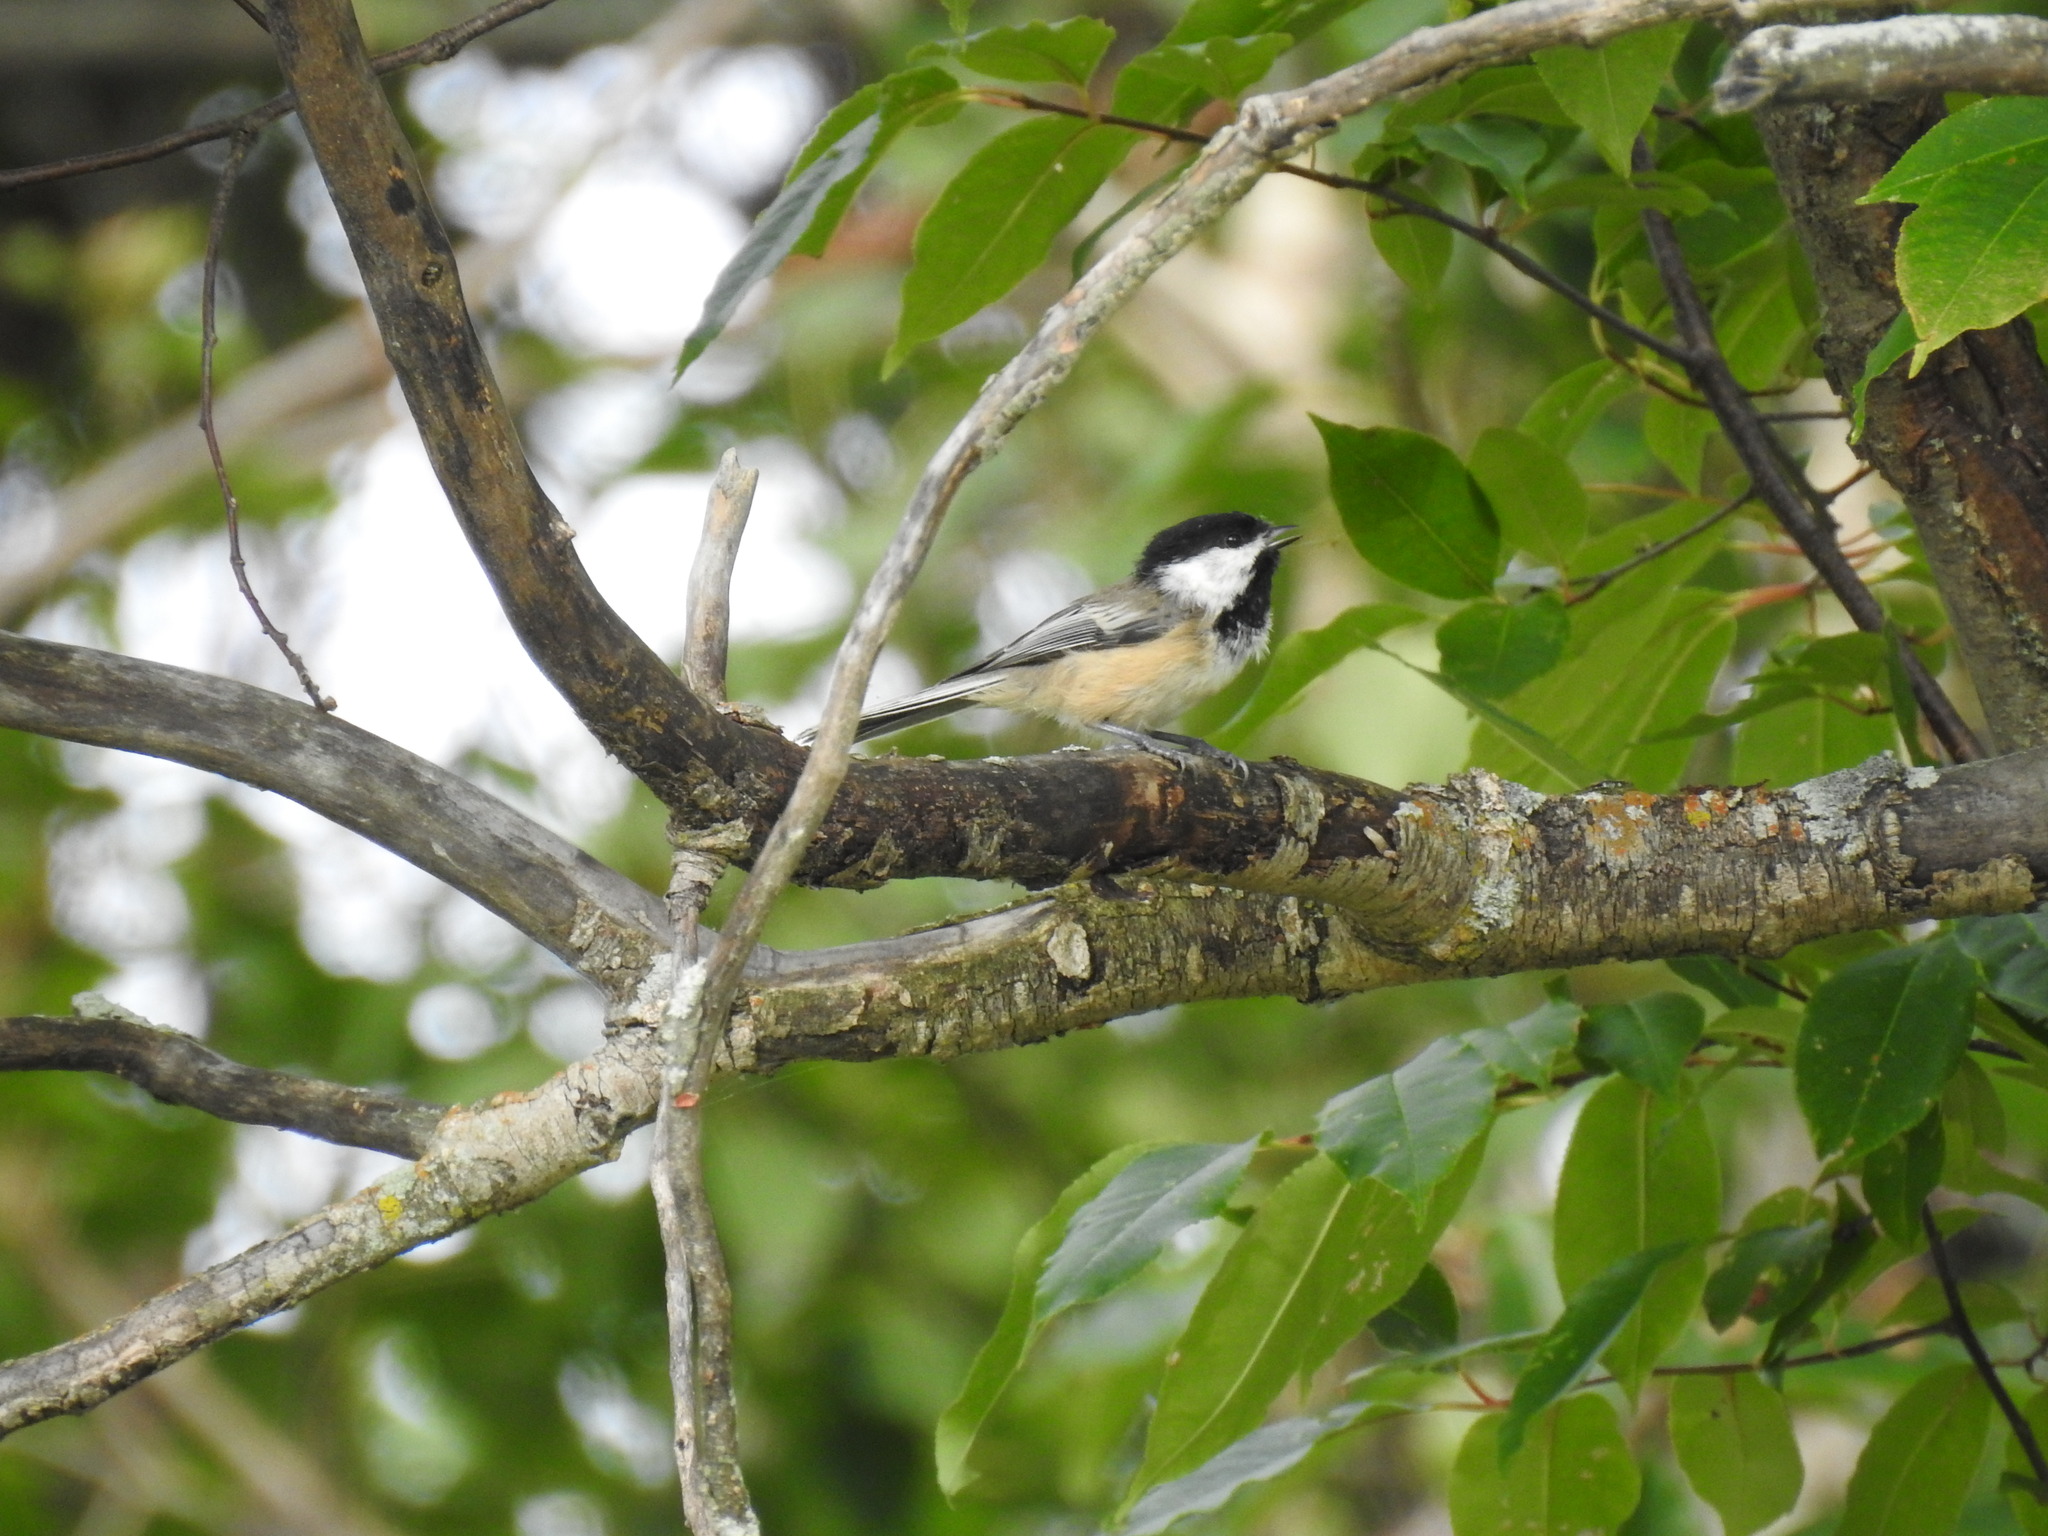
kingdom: Animalia
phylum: Chordata
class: Aves
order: Passeriformes
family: Paridae
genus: Poecile
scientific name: Poecile atricapillus
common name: Black-capped chickadee
